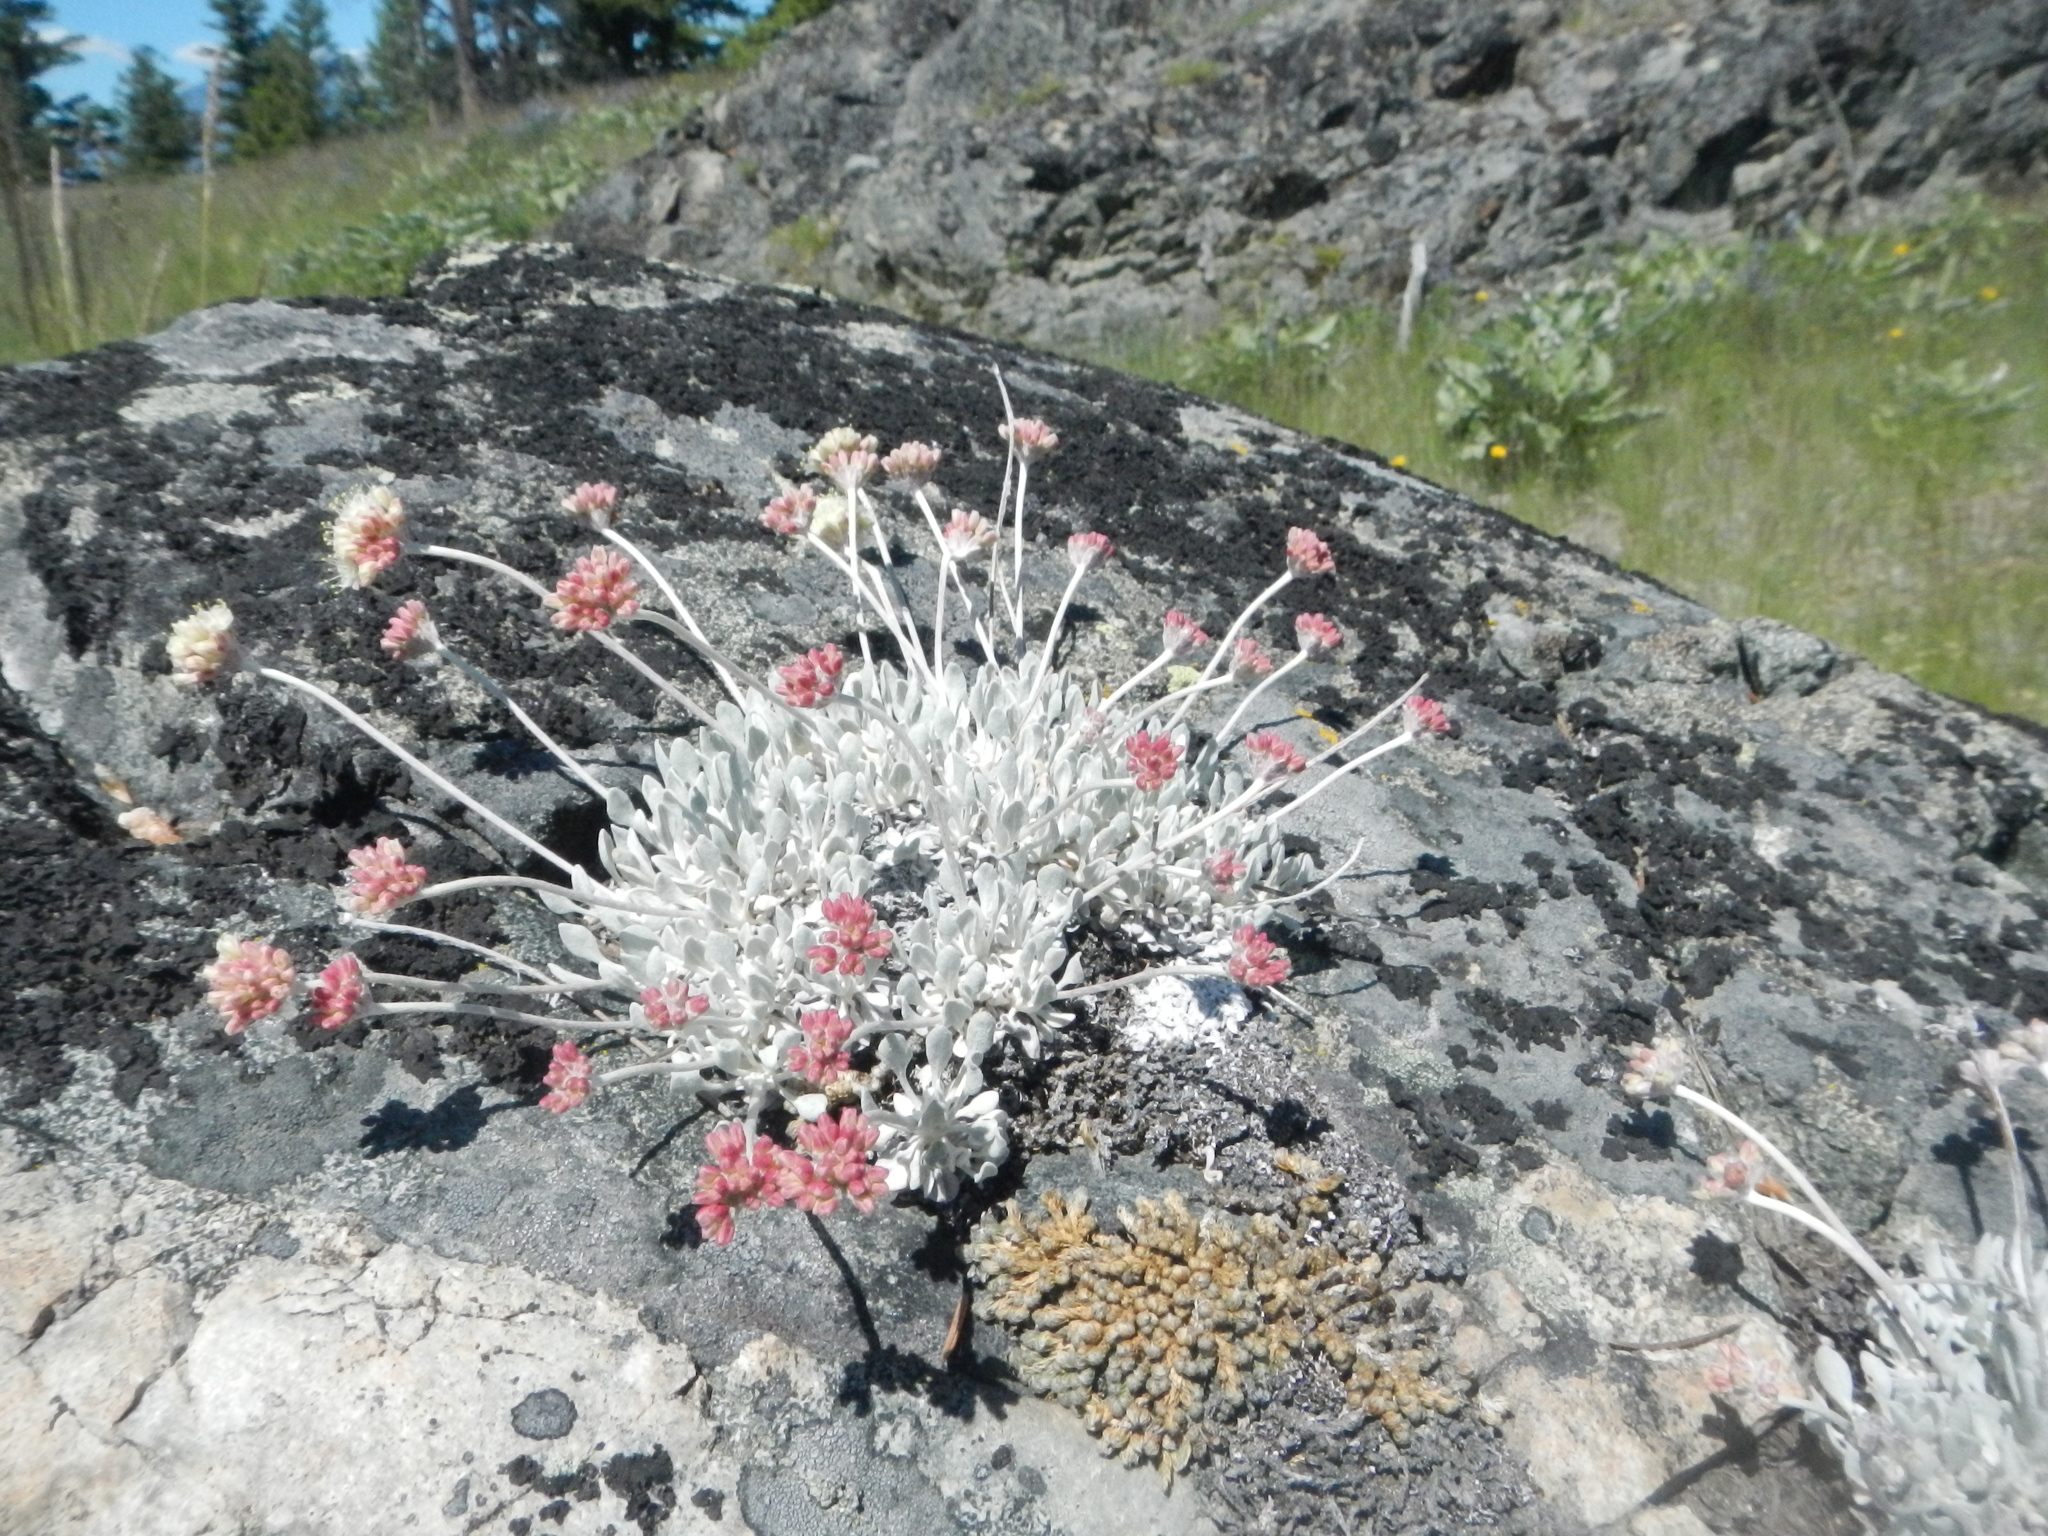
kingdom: Plantae
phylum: Tracheophyta
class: Magnoliopsida
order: Caryophyllales
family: Polygonaceae
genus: Eriogonum
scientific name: Eriogonum ovalifolium
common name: Cushion buckwheat
